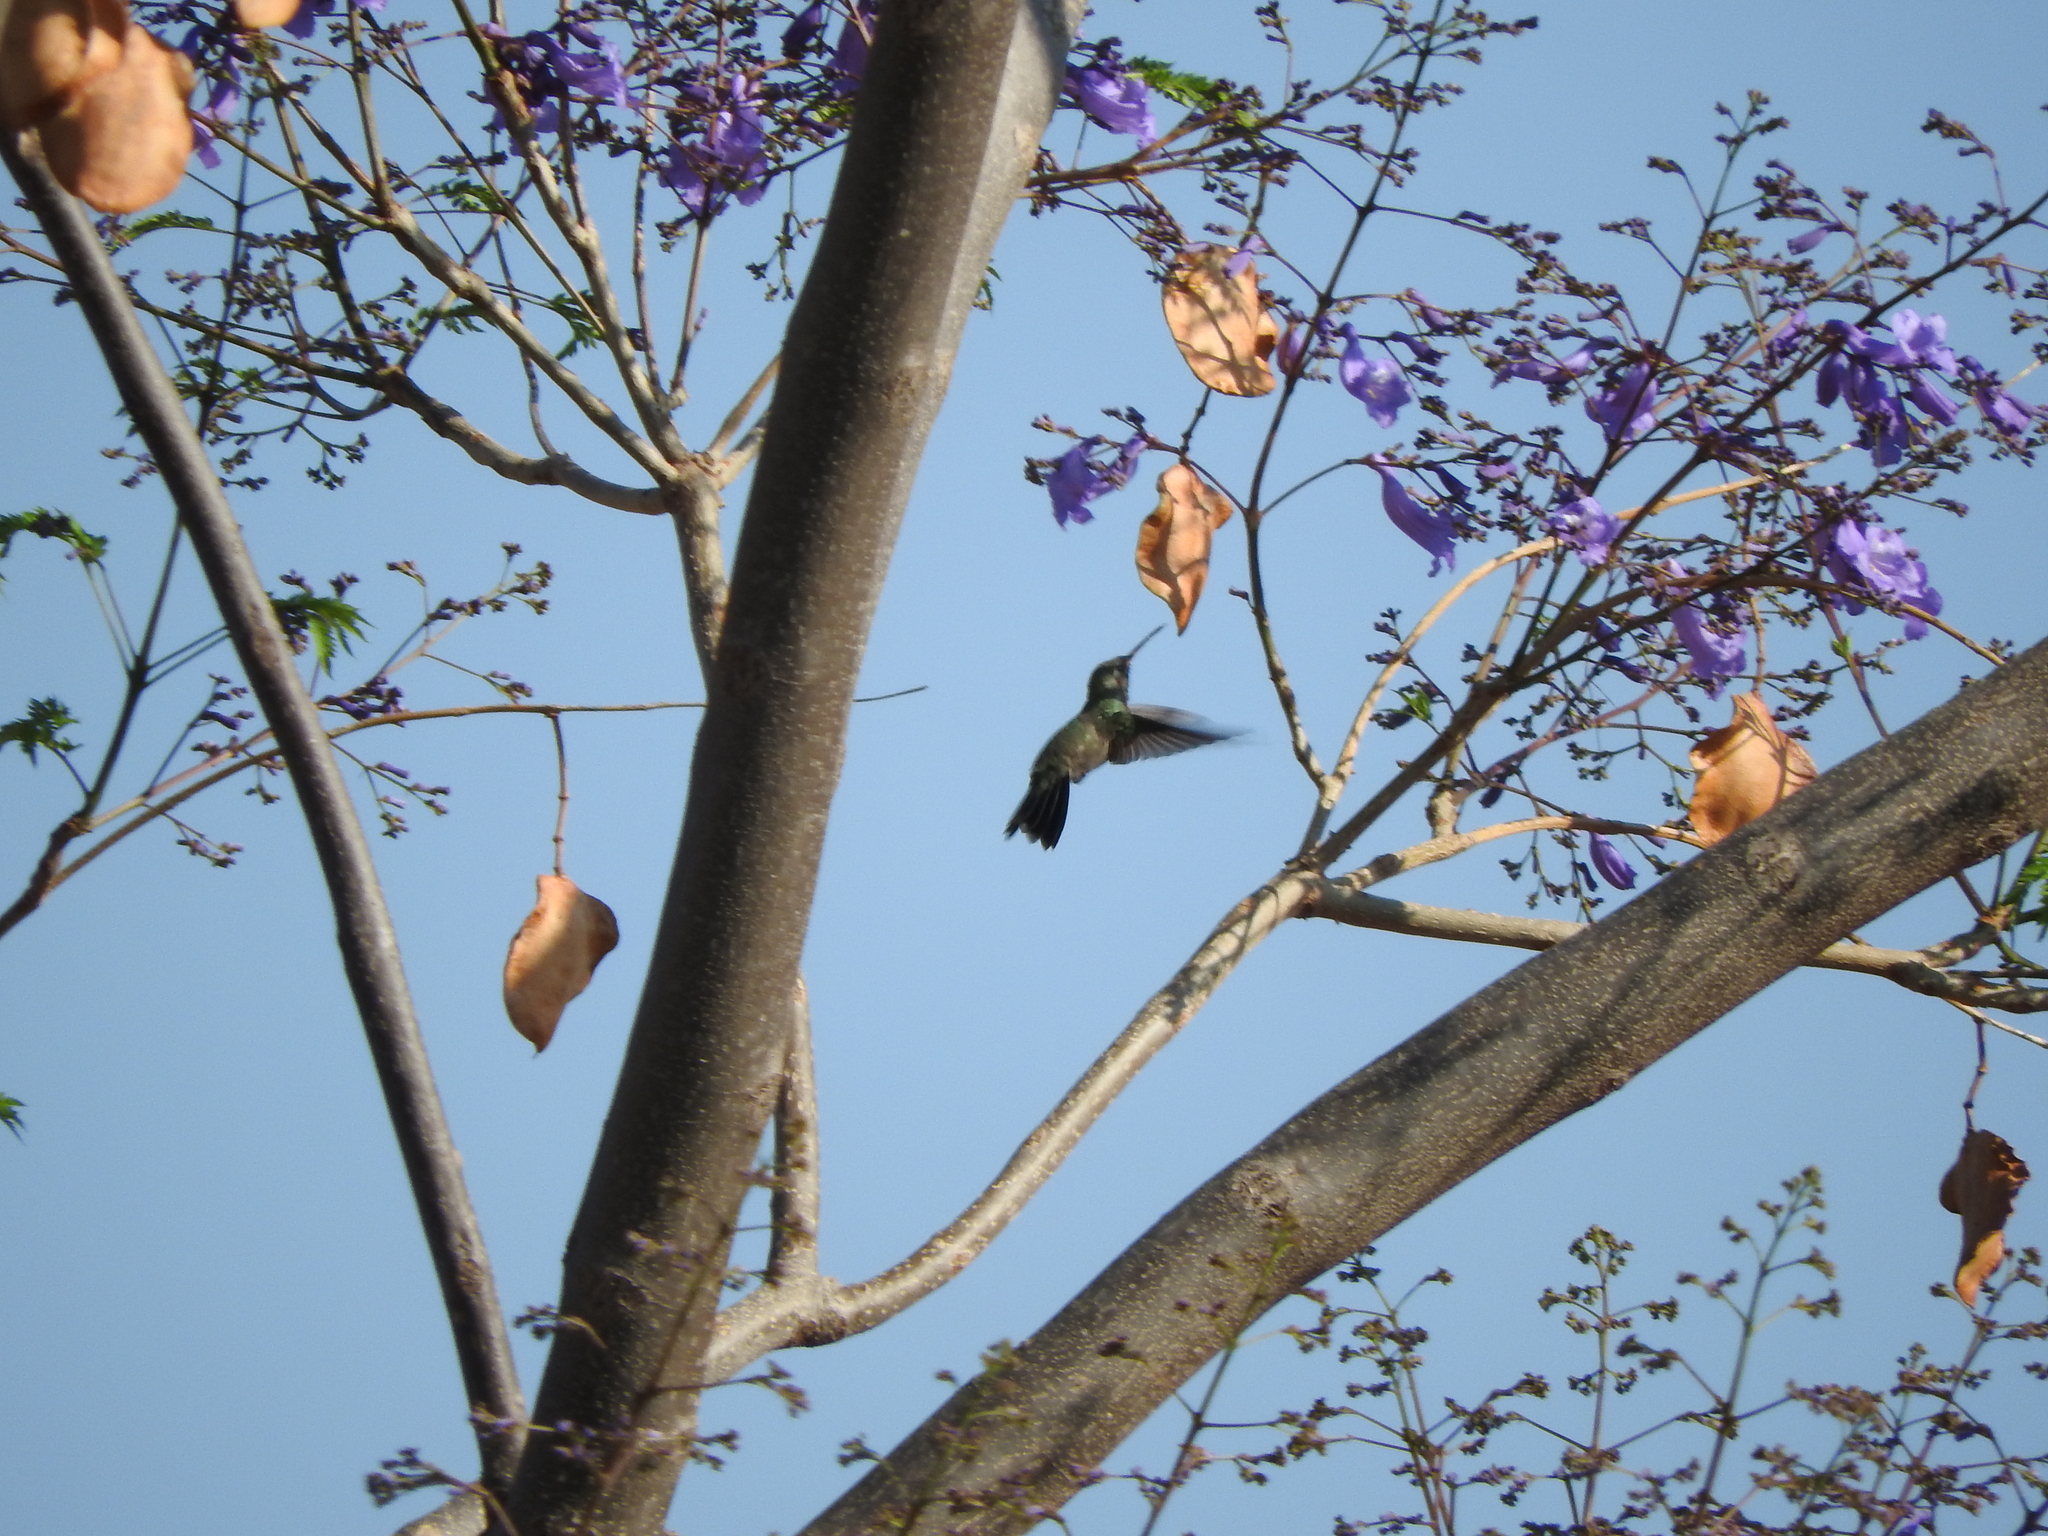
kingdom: Animalia
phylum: Chordata
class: Aves
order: Apodiformes
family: Trochilidae
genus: Cynanthus
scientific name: Cynanthus latirostris
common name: Broad-billed hummingbird
